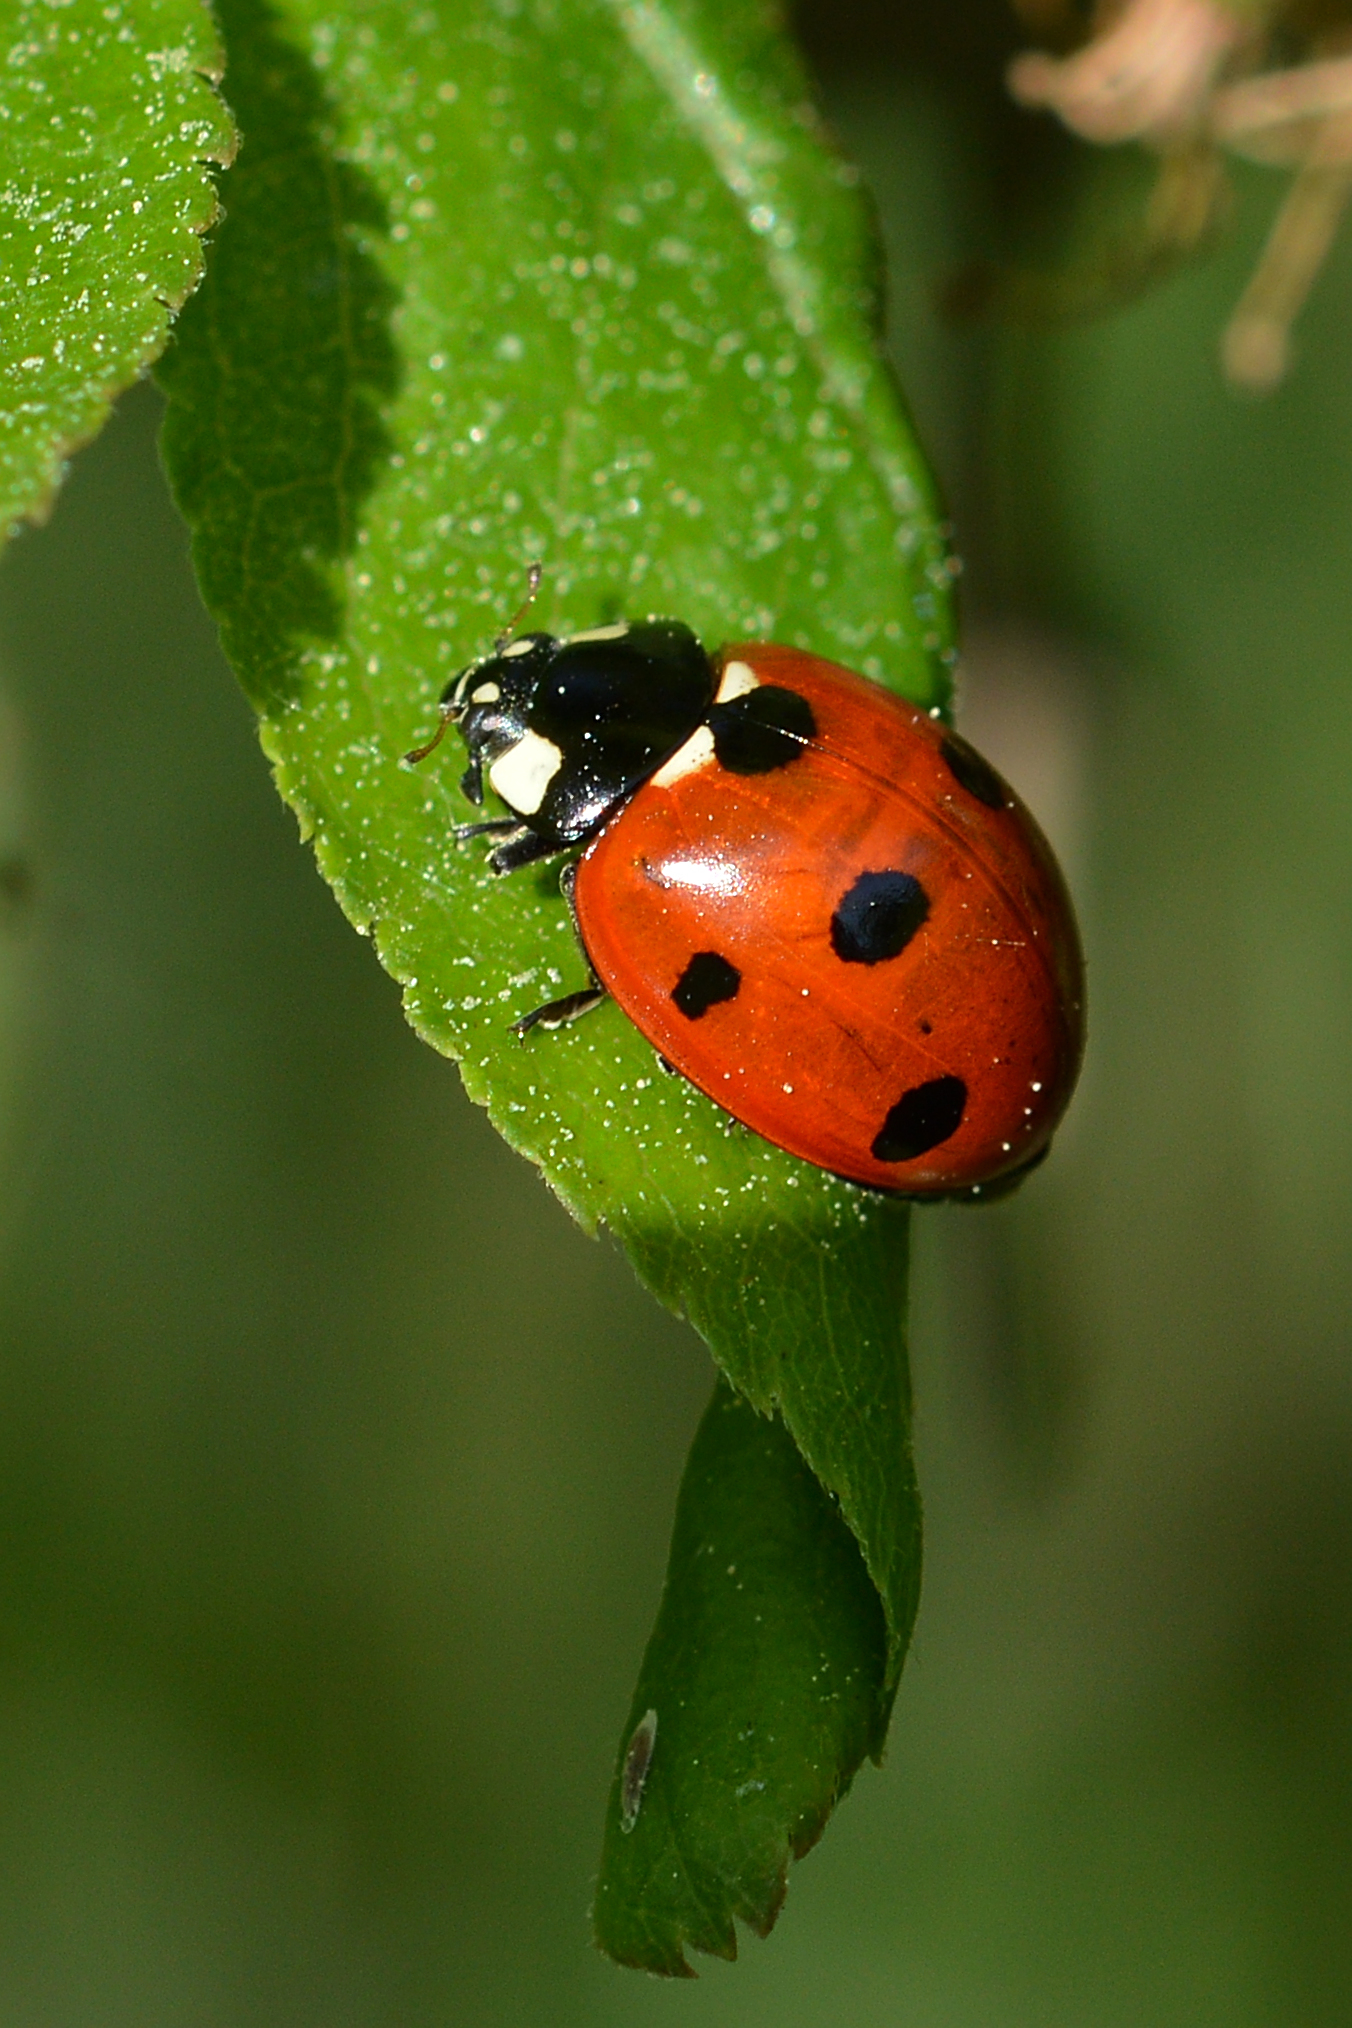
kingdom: Animalia
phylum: Arthropoda
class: Insecta
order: Coleoptera
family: Coccinellidae
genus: Coccinella
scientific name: Coccinella septempunctata
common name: Sevenspotted lady beetle
